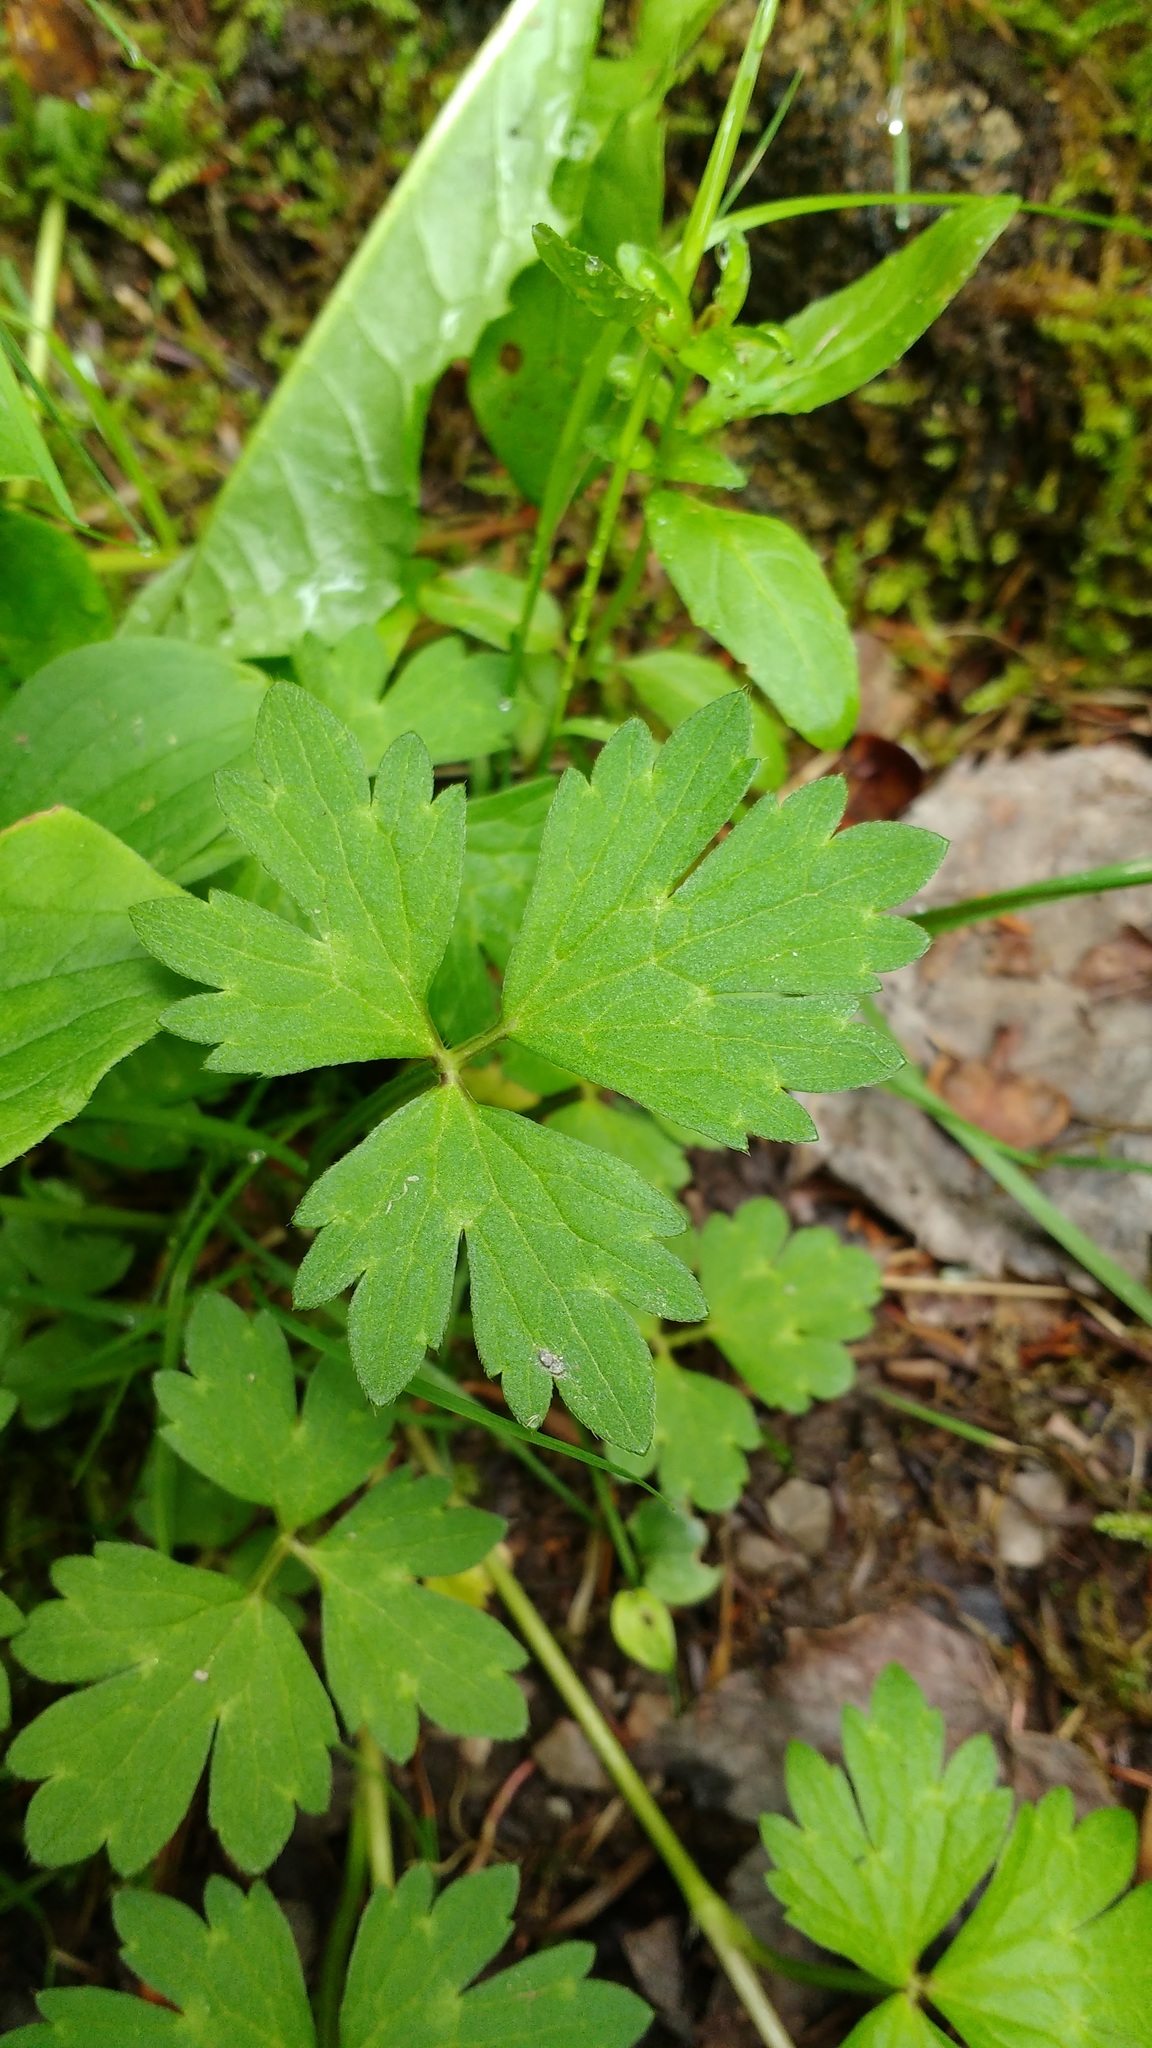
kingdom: Plantae
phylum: Tracheophyta
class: Magnoliopsida
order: Ranunculales
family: Ranunculaceae
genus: Ranunculus
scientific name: Ranunculus repens
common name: Creeping buttercup
